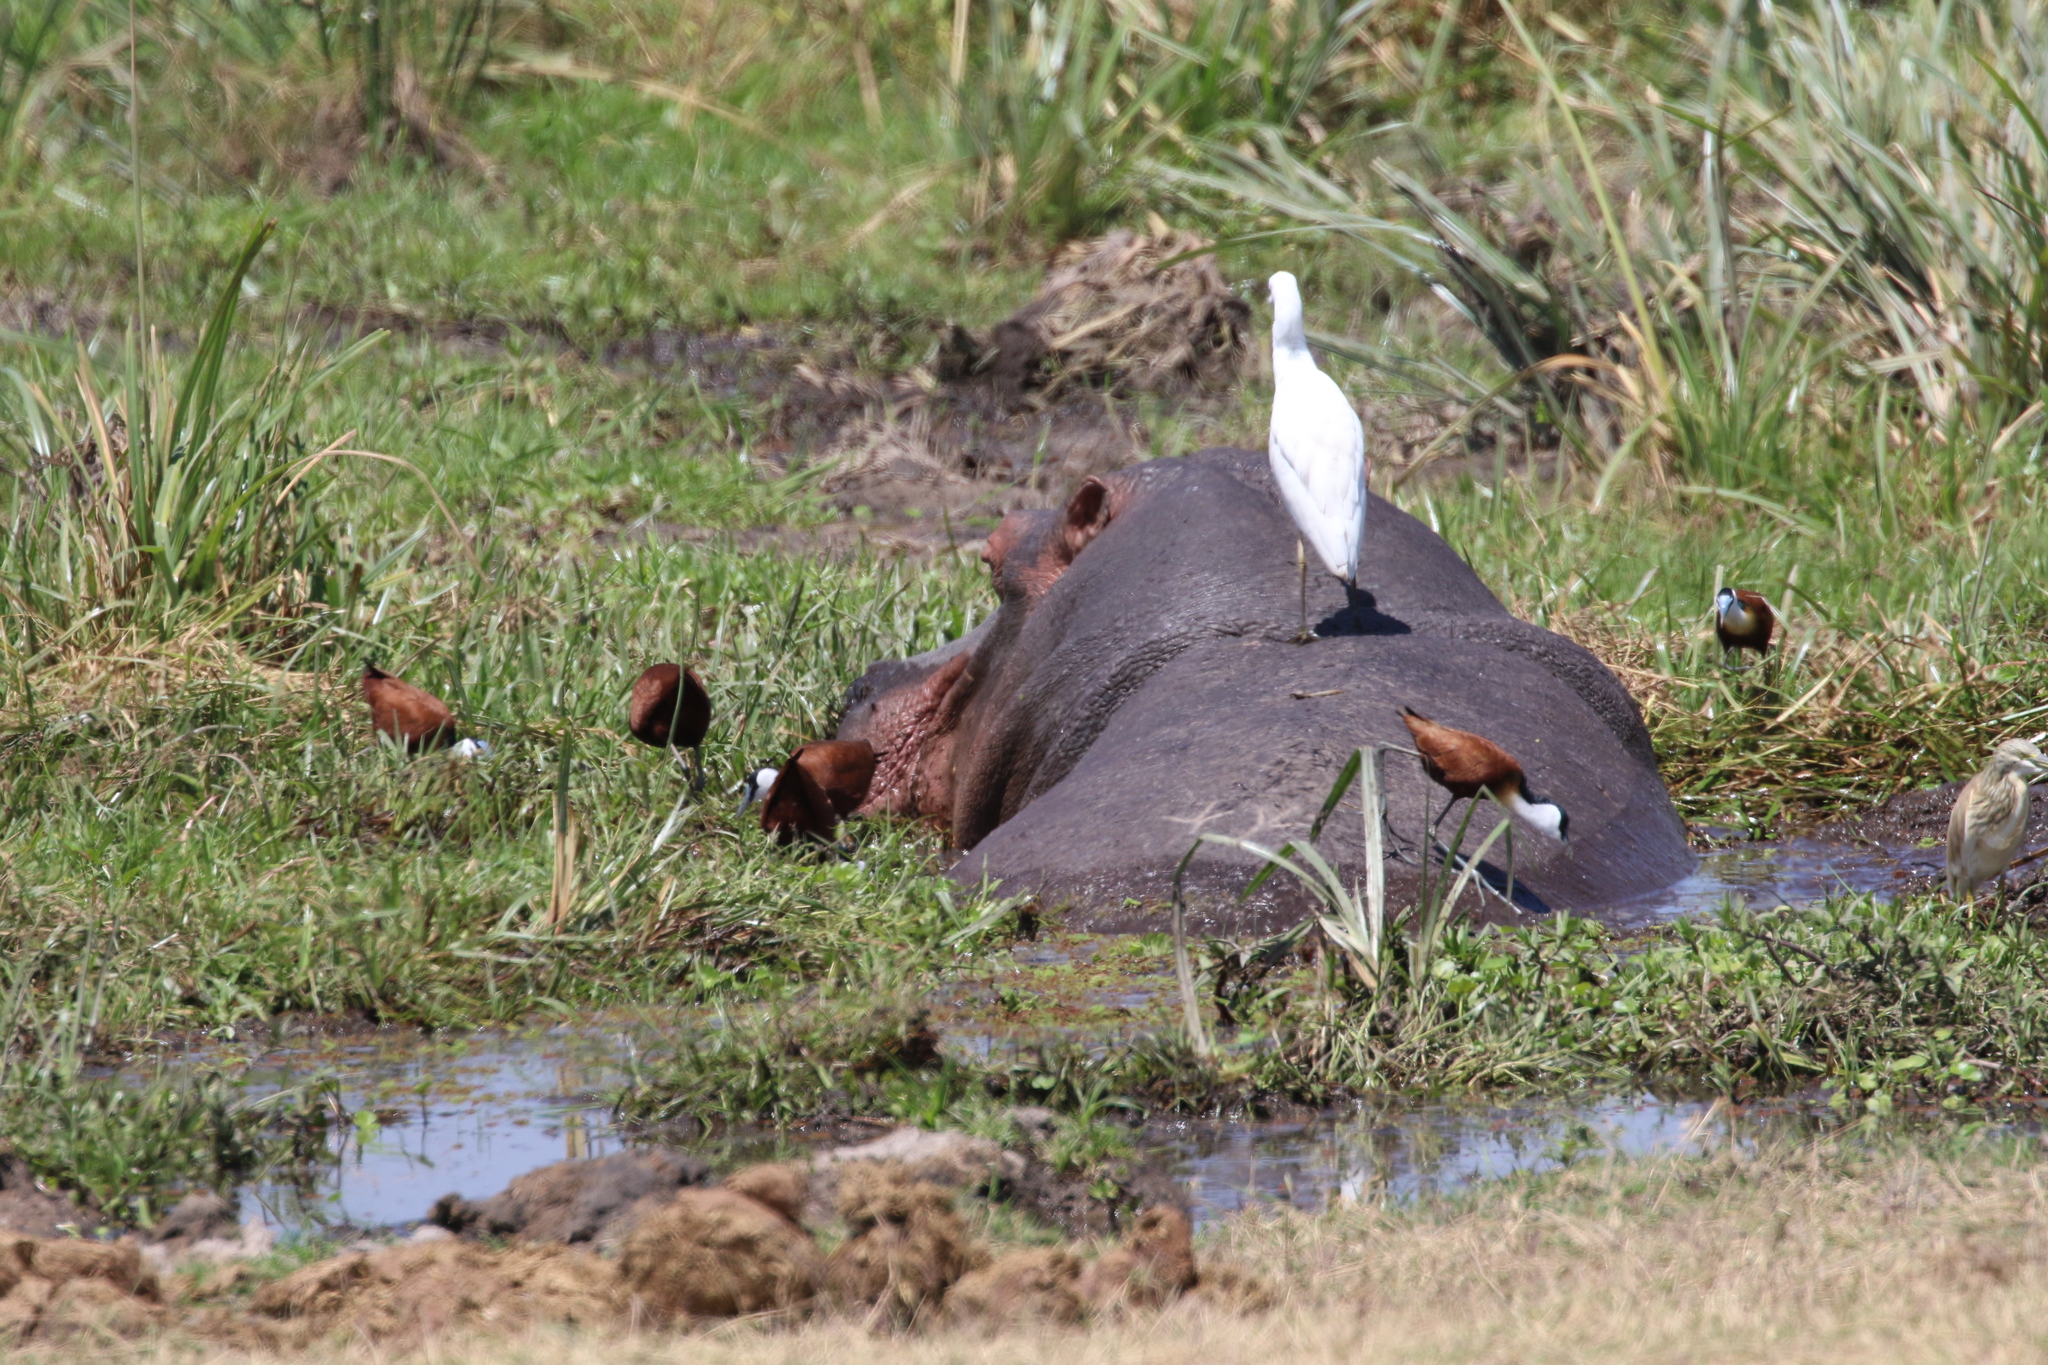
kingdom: Animalia
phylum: Chordata
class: Mammalia
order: Artiodactyla
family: Hippopotamidae
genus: Hippopotamus
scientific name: Hippopotamus amphibius
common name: Common hippopotamus
